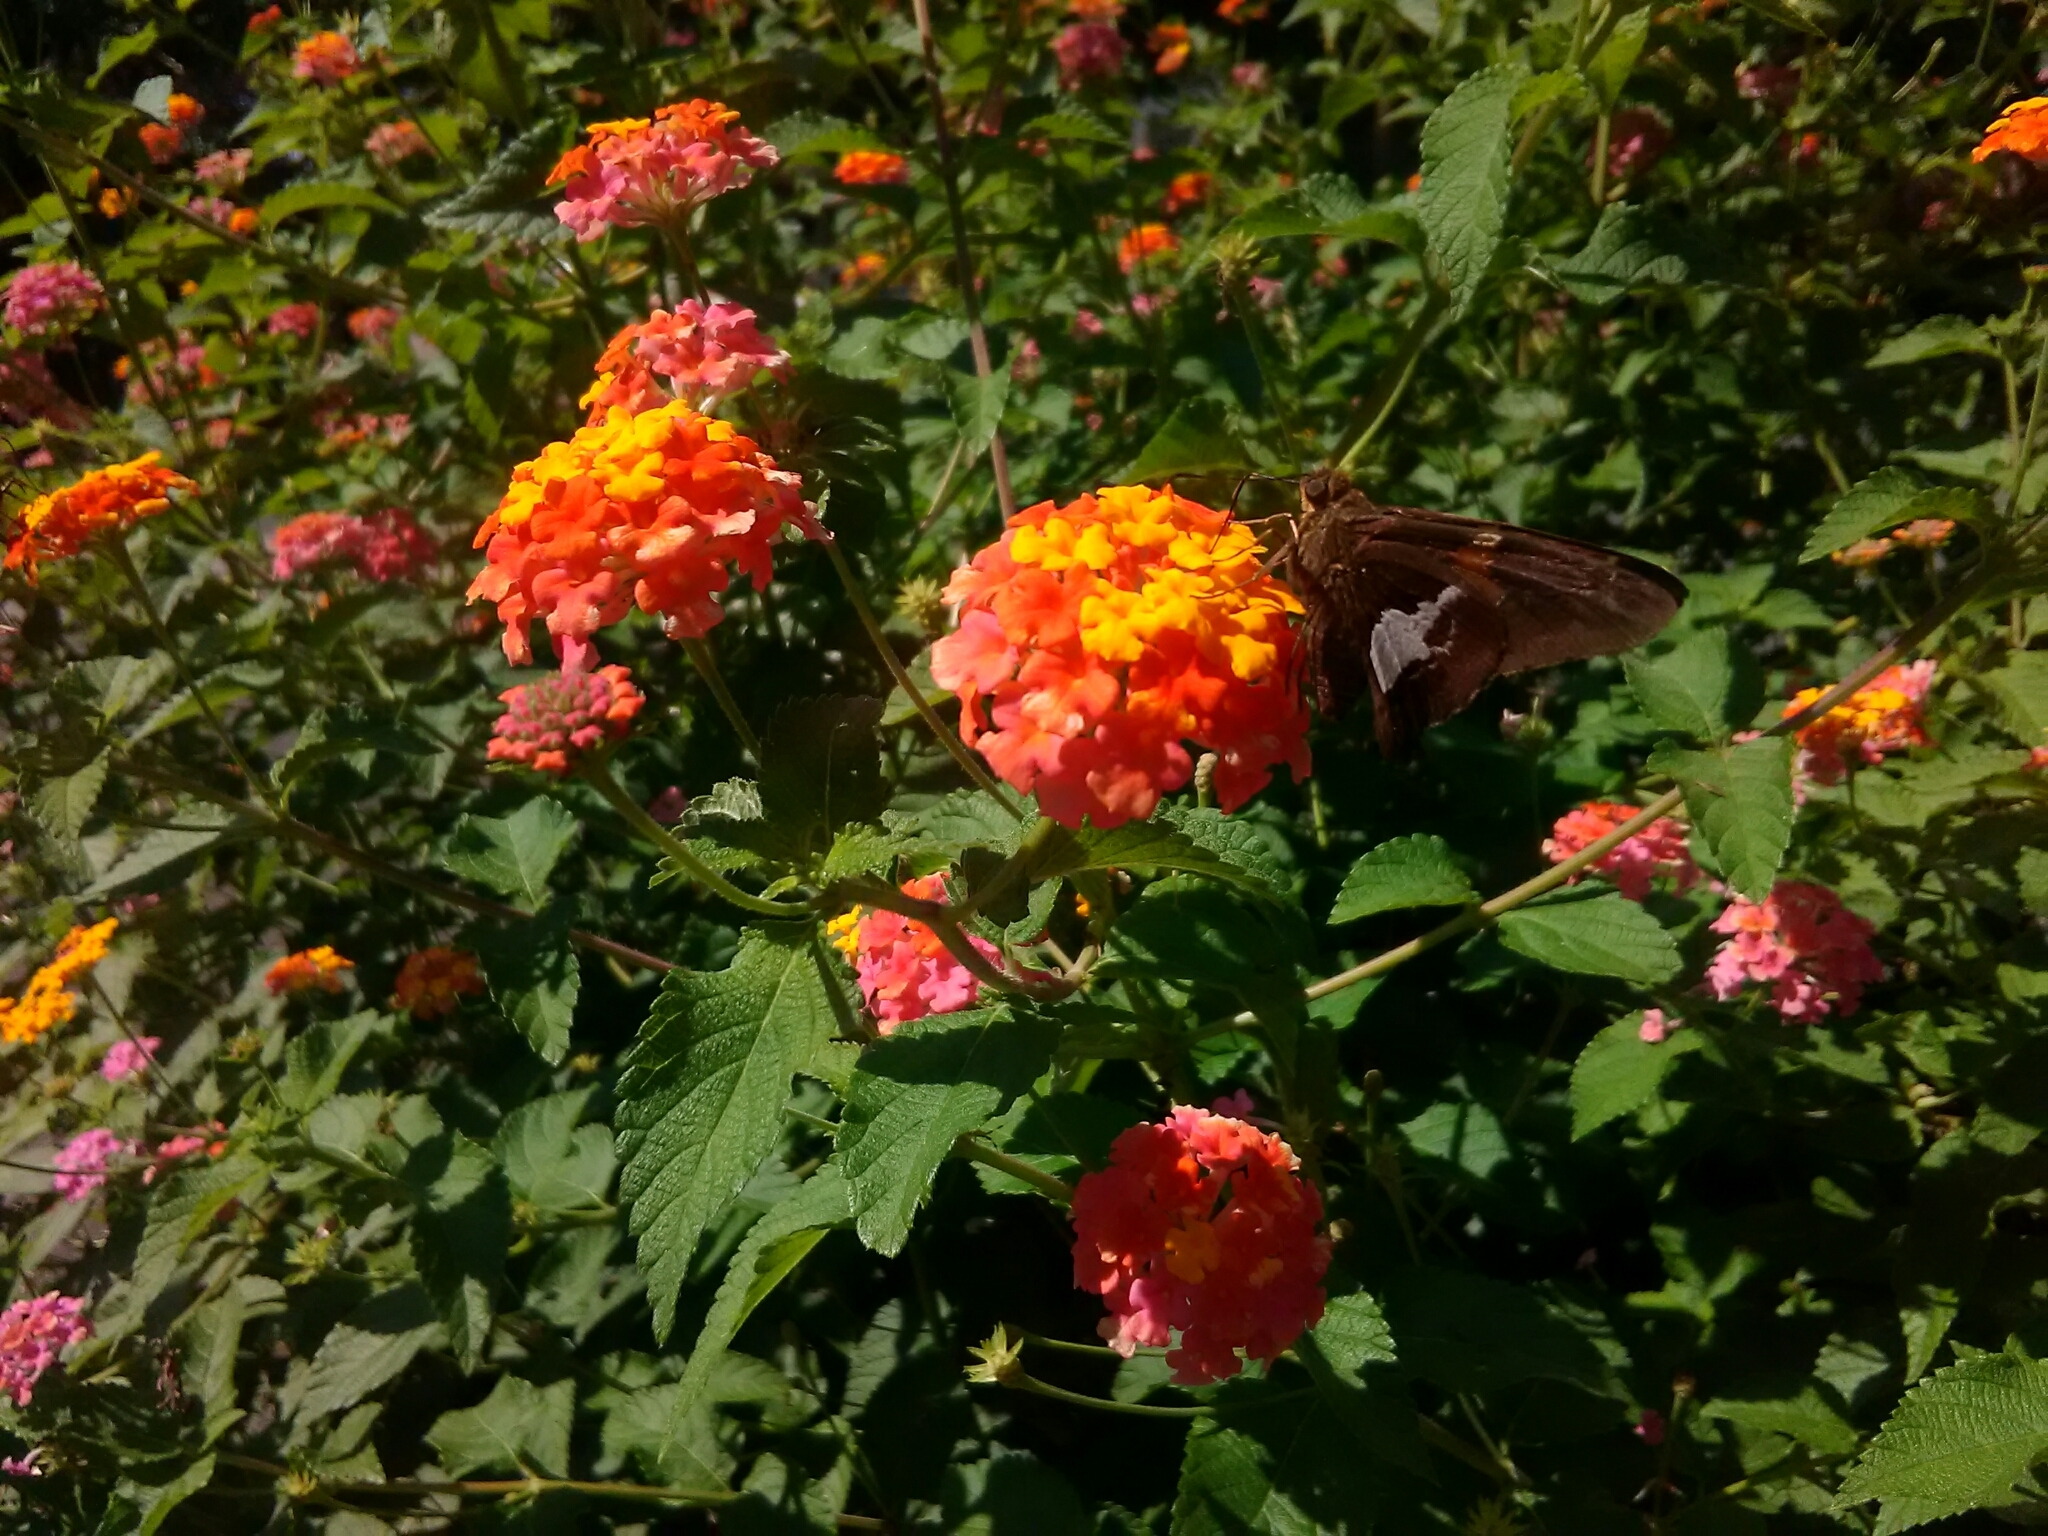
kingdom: Animalia
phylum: Arthropoda
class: Insecta
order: Lepidoptera
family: Hesperiidae
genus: Epargyreus
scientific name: Epargyreus clarus
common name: Silver-spotted skipper
